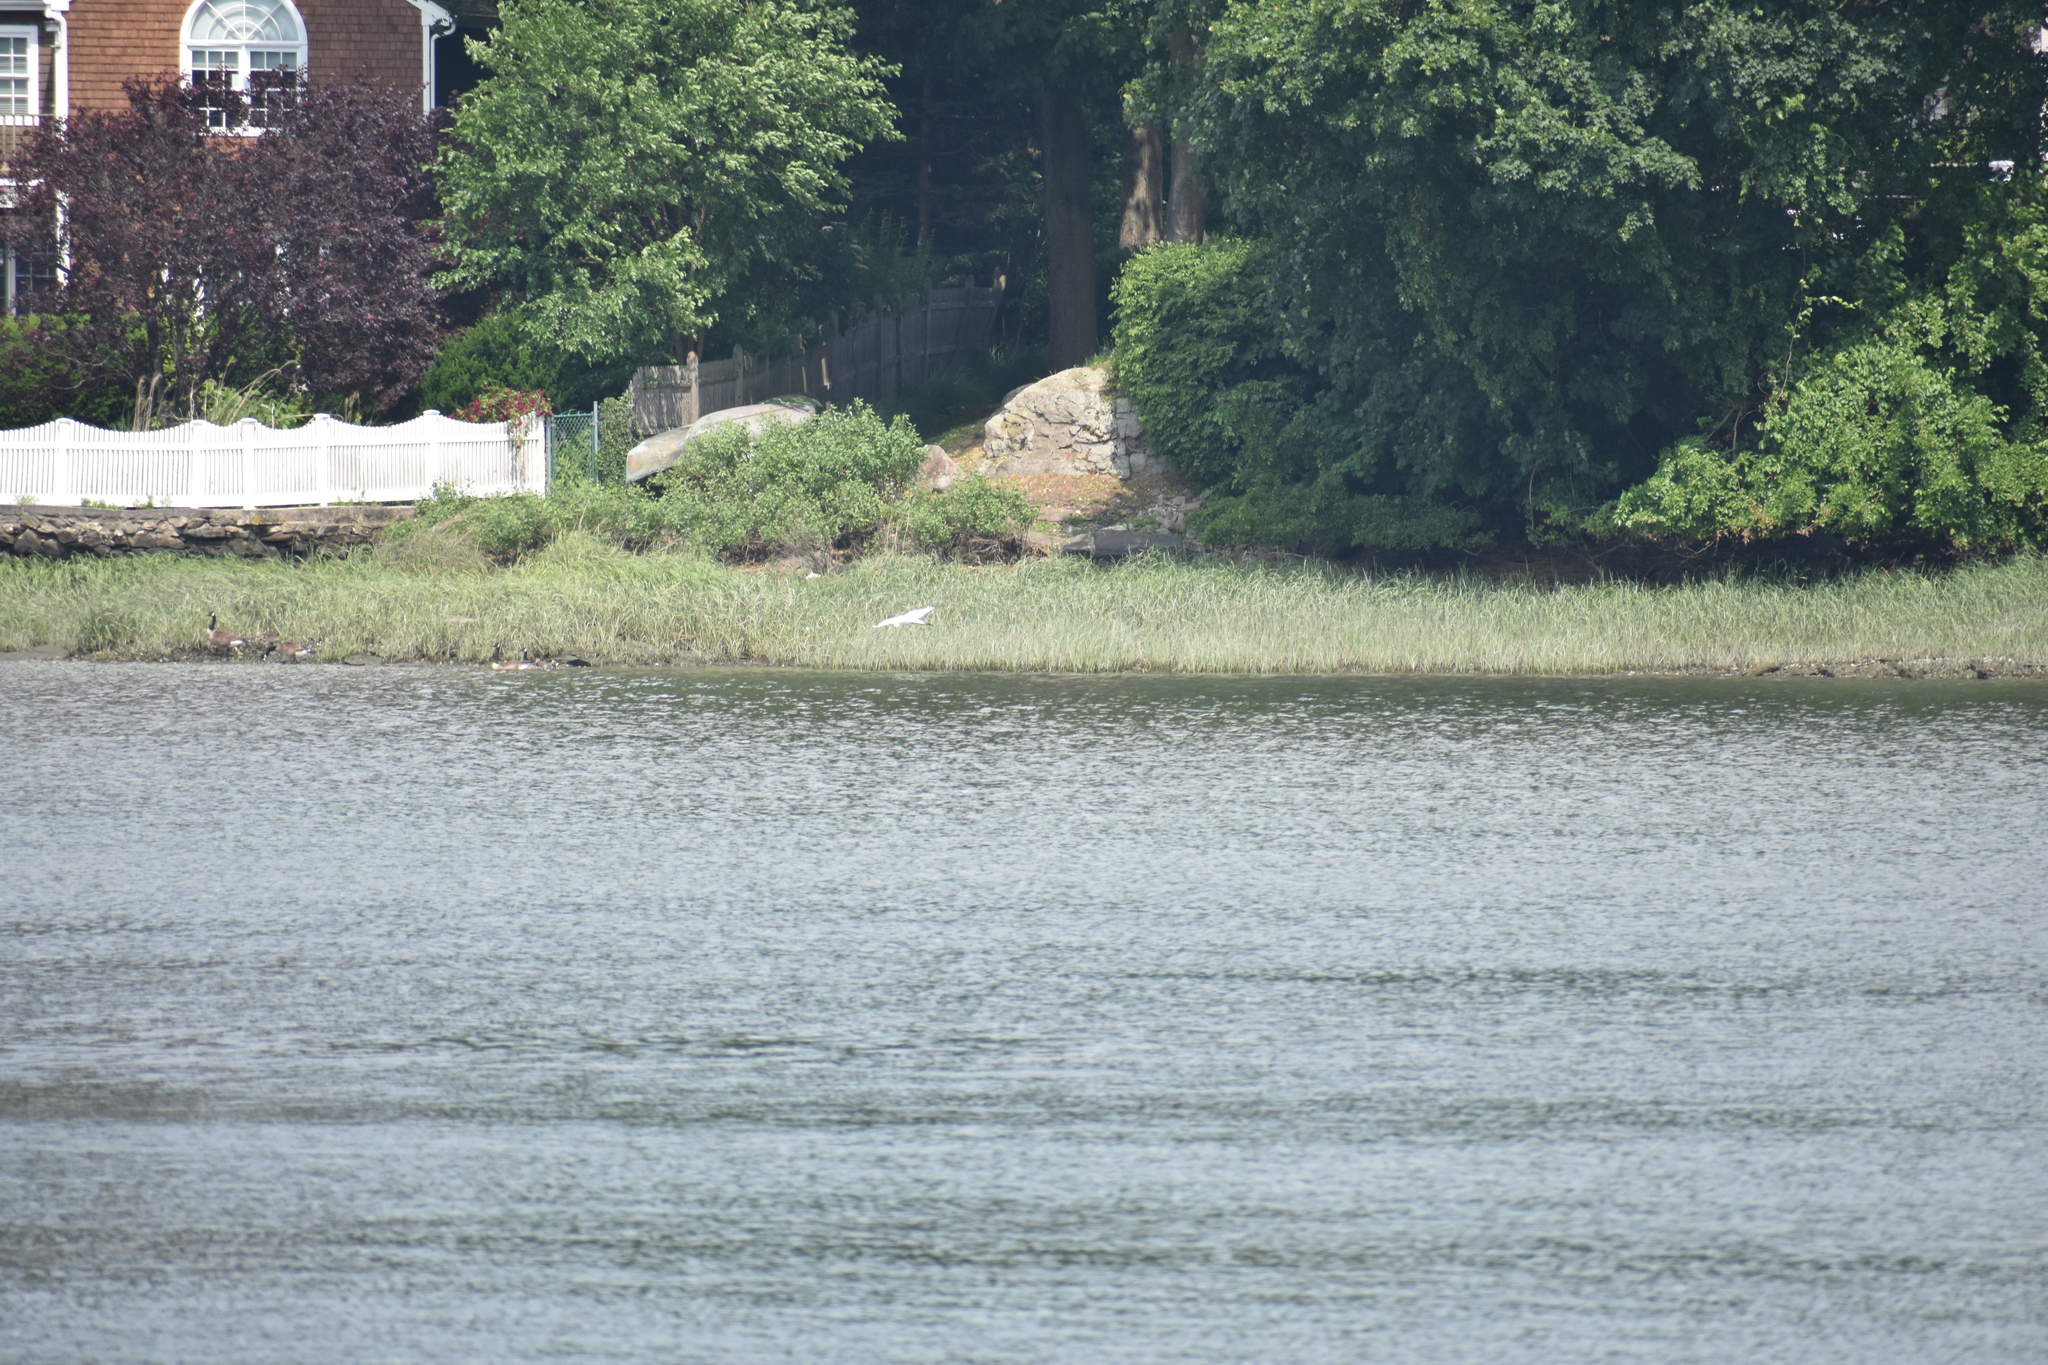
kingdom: Animalia
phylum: Chordata
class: Aves
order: Pelecaniformes
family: Ardeidae
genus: Ardea
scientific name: Ardea alba
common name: Great egret
